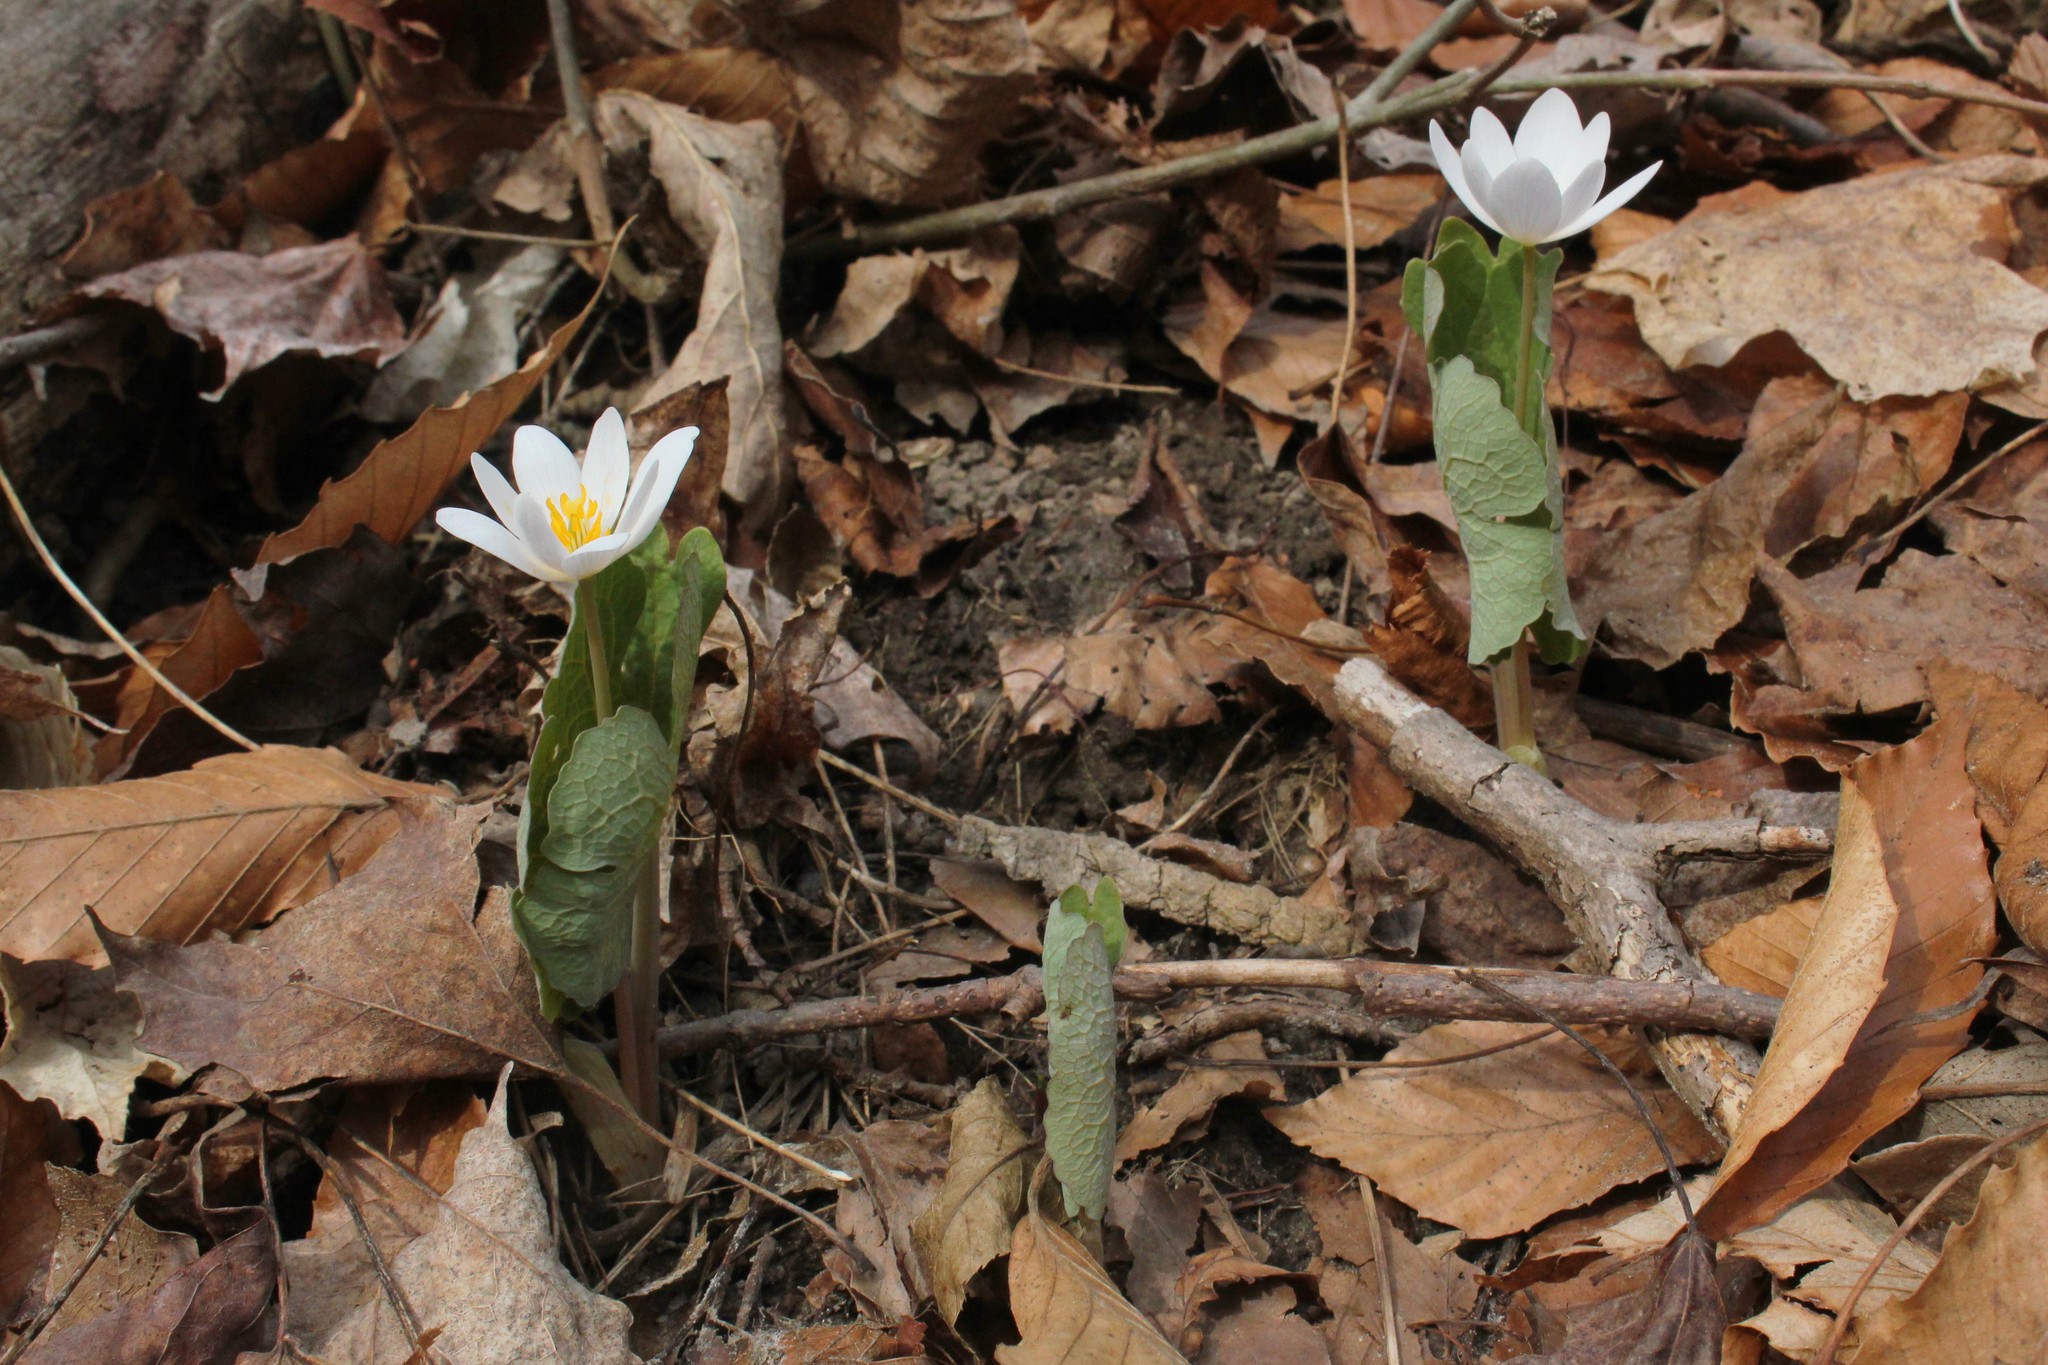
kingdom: Plantae
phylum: Tracheophyta
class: Magnoliopsida
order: Ranunculales
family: Papaveraceae
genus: Sanguinaria
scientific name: Sanguinaria canadensis
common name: Bloodroot
